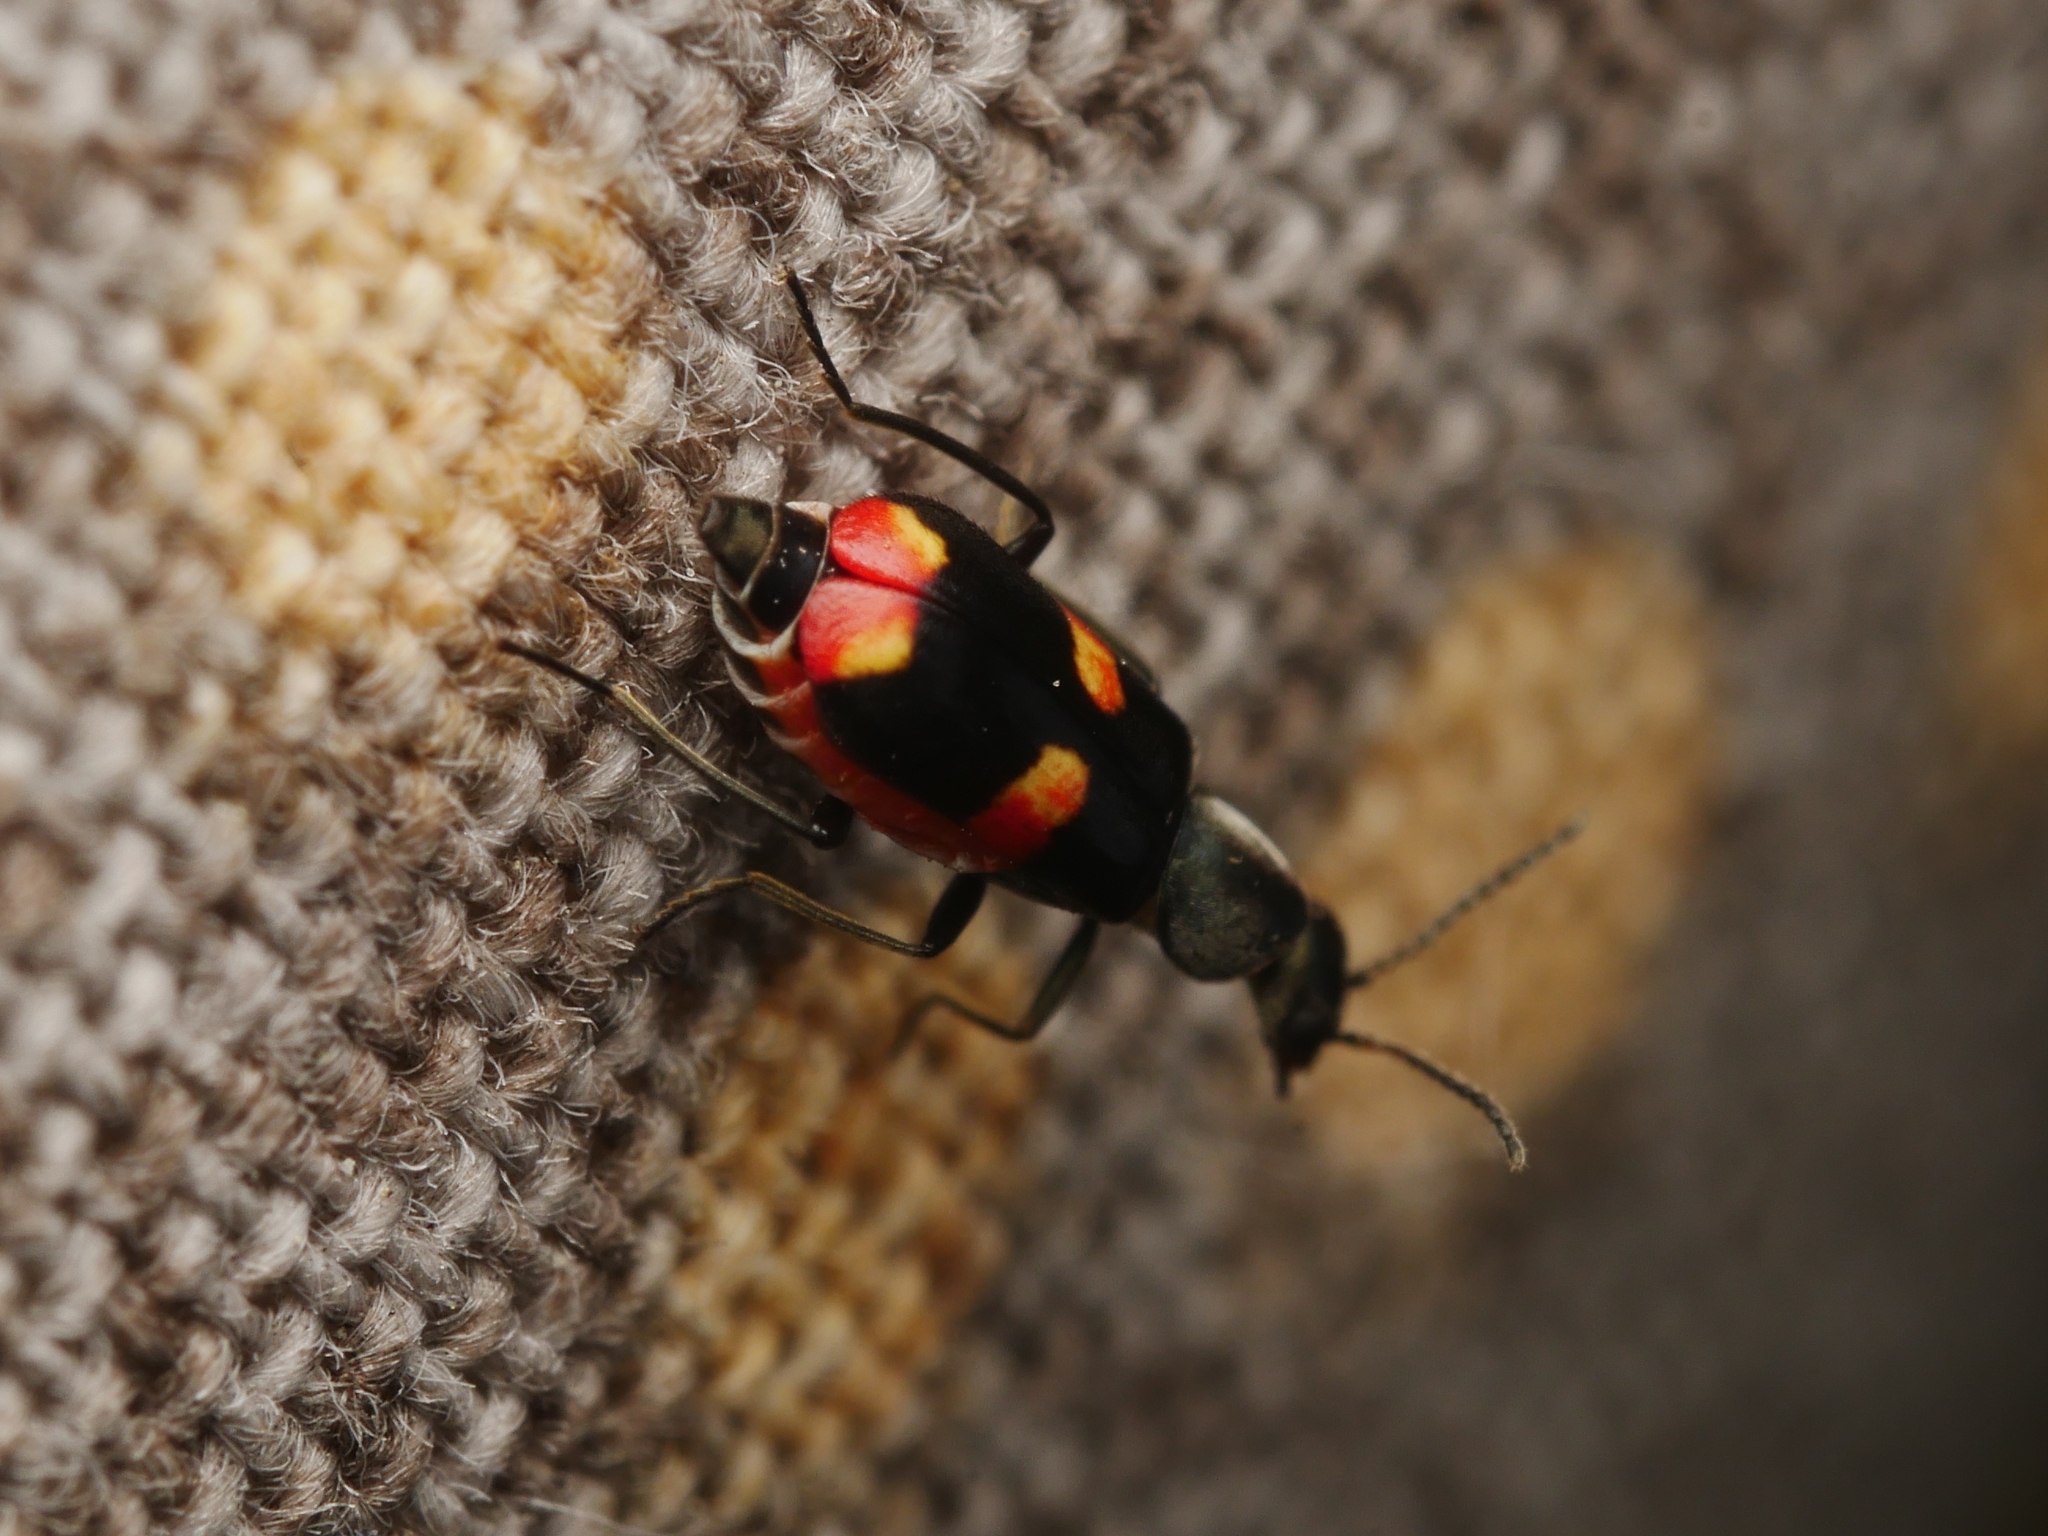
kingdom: Animalia
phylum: Arthropoda
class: Insecta
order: Coleoptera
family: Melyridae
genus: Anthocomus
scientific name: Anthocomus fasciatus
